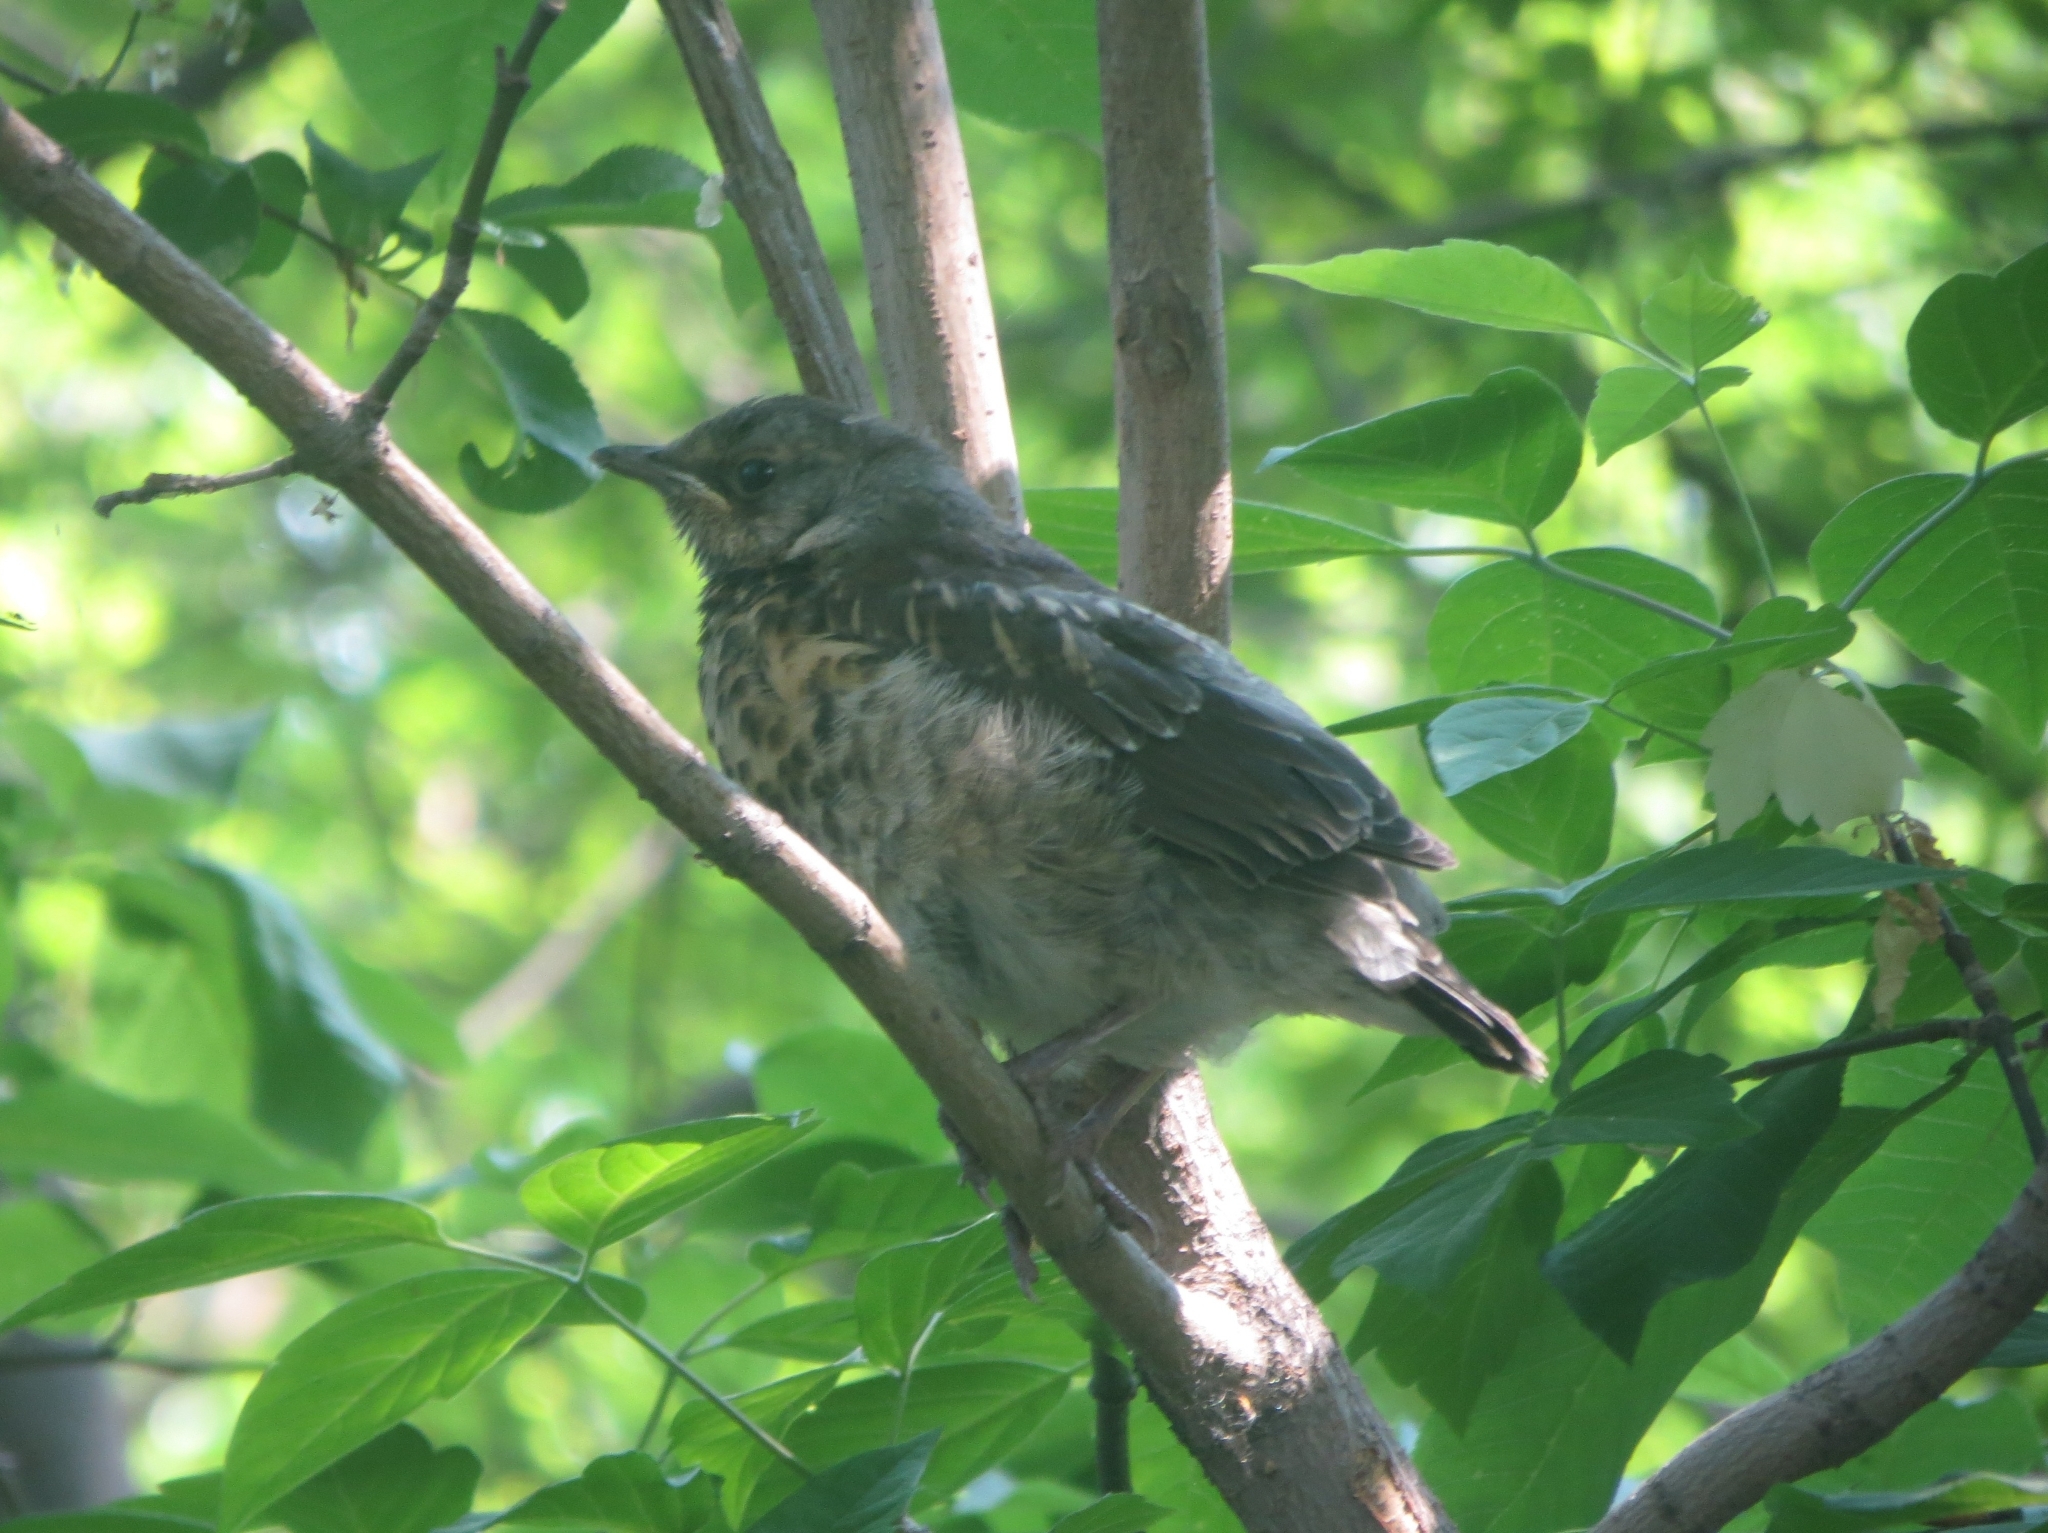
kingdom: Animalia
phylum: Chordata
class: Aves
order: Passeriformes
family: Turdidae
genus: Turdus
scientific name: Turdus pilaris
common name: Fieldfare
